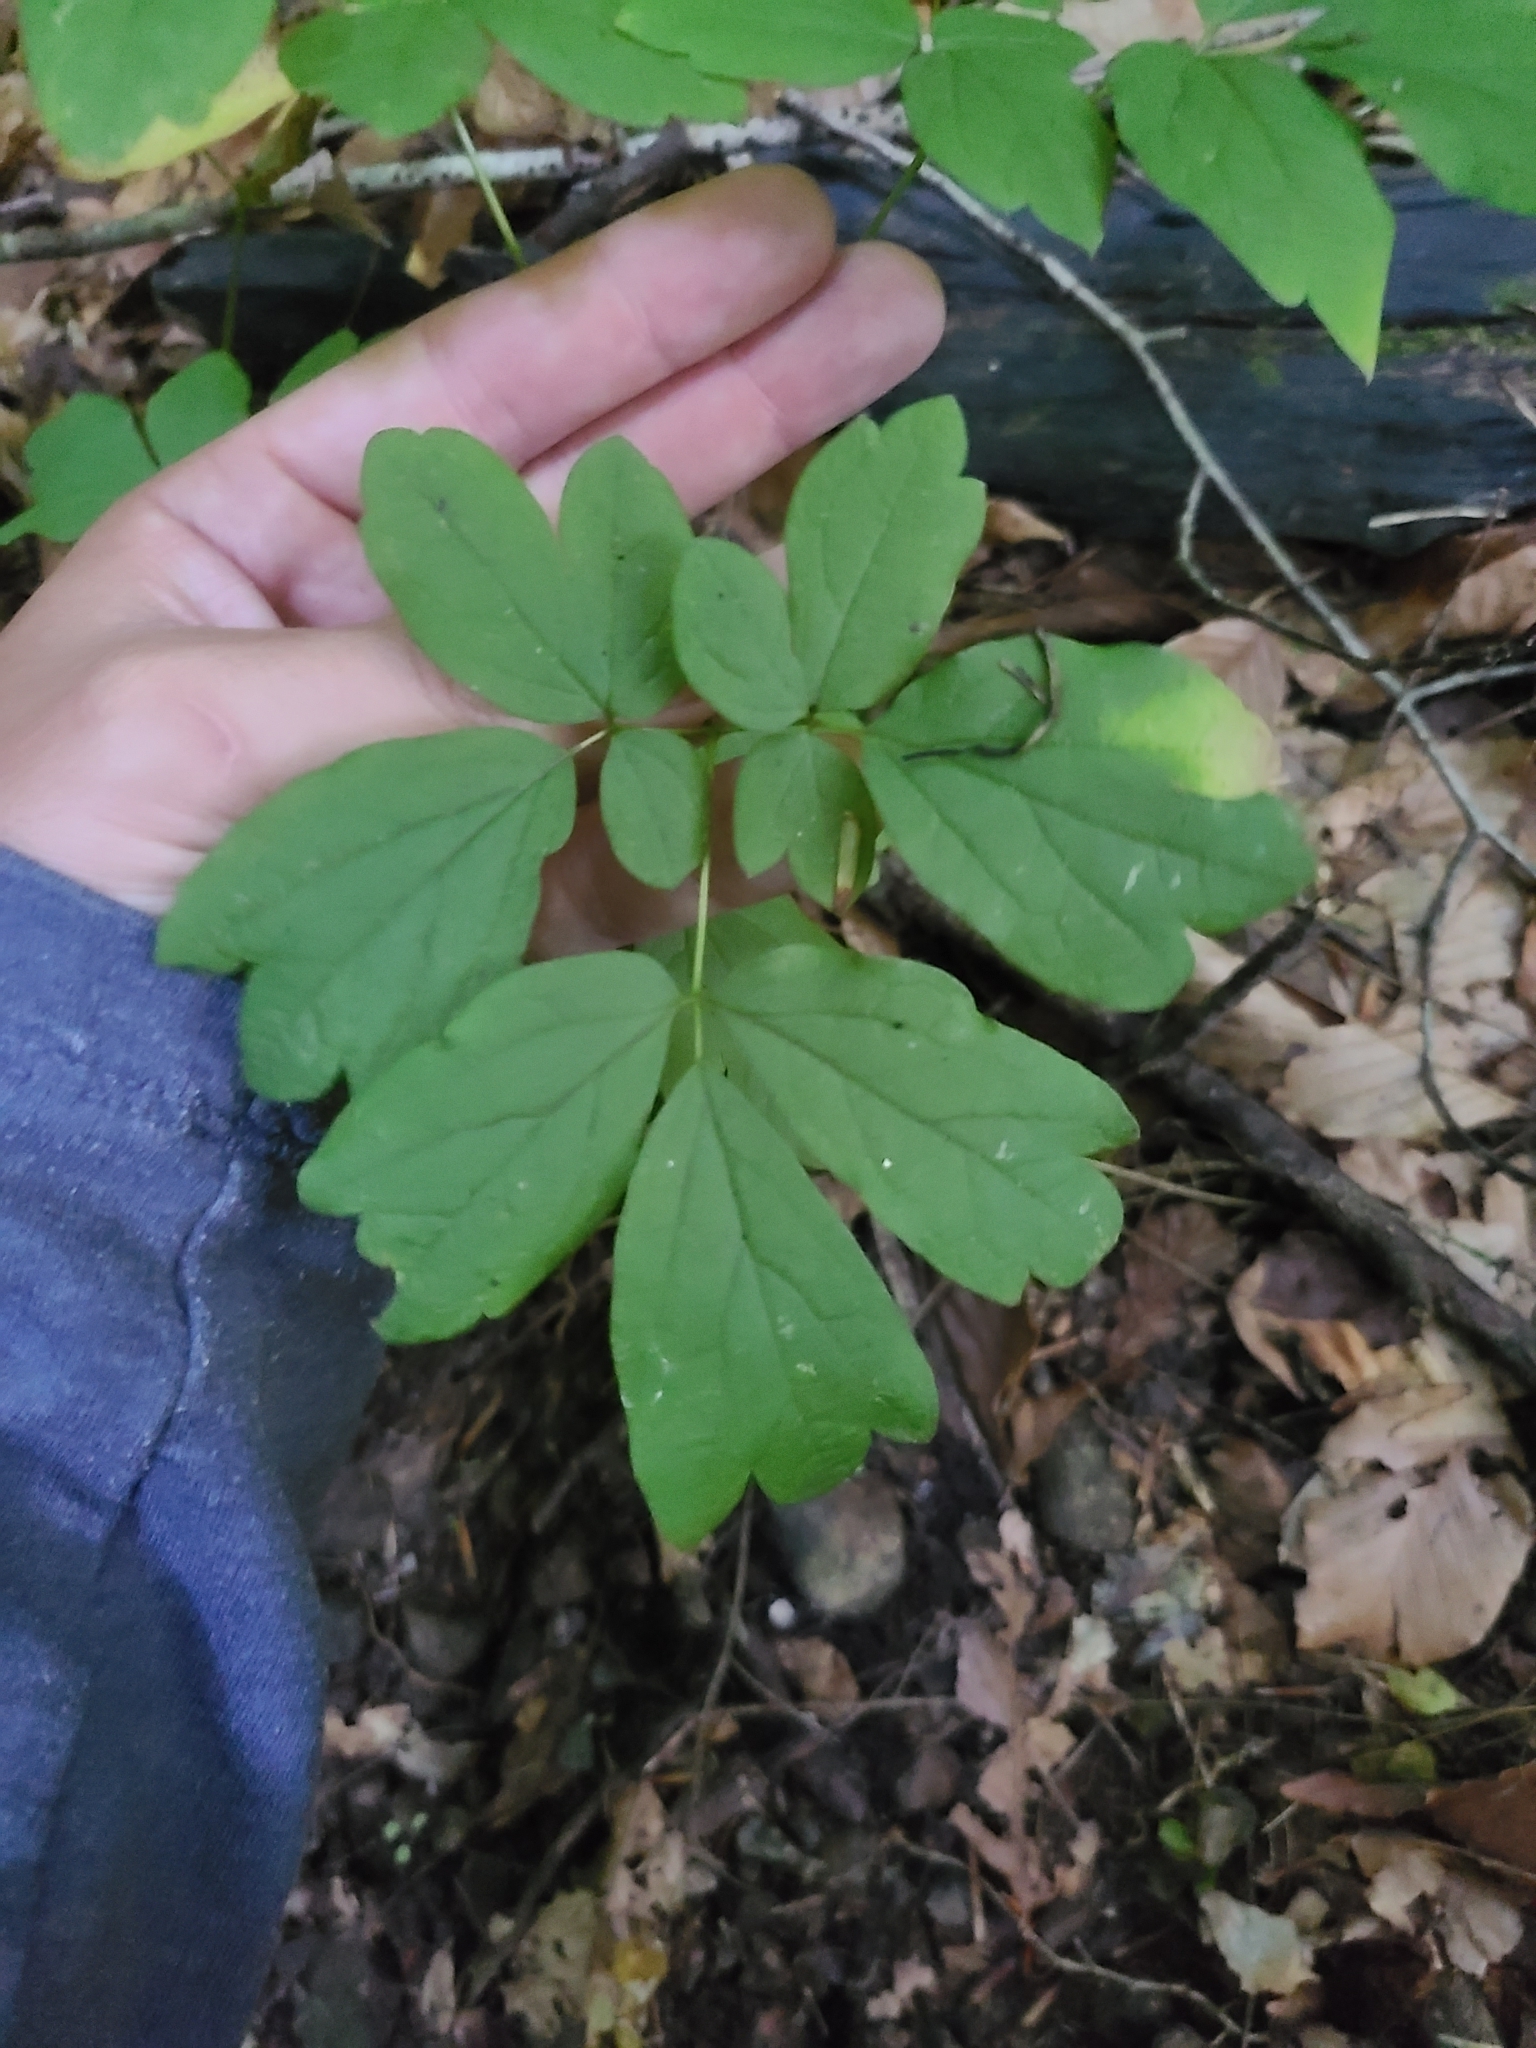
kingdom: Plantae
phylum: Tracheophyta
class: Magnoliopsida
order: Ranunculales
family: Berberidaceae
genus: Caulophyllum
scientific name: Caulophyllum thalictroides
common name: Blue cohosh
